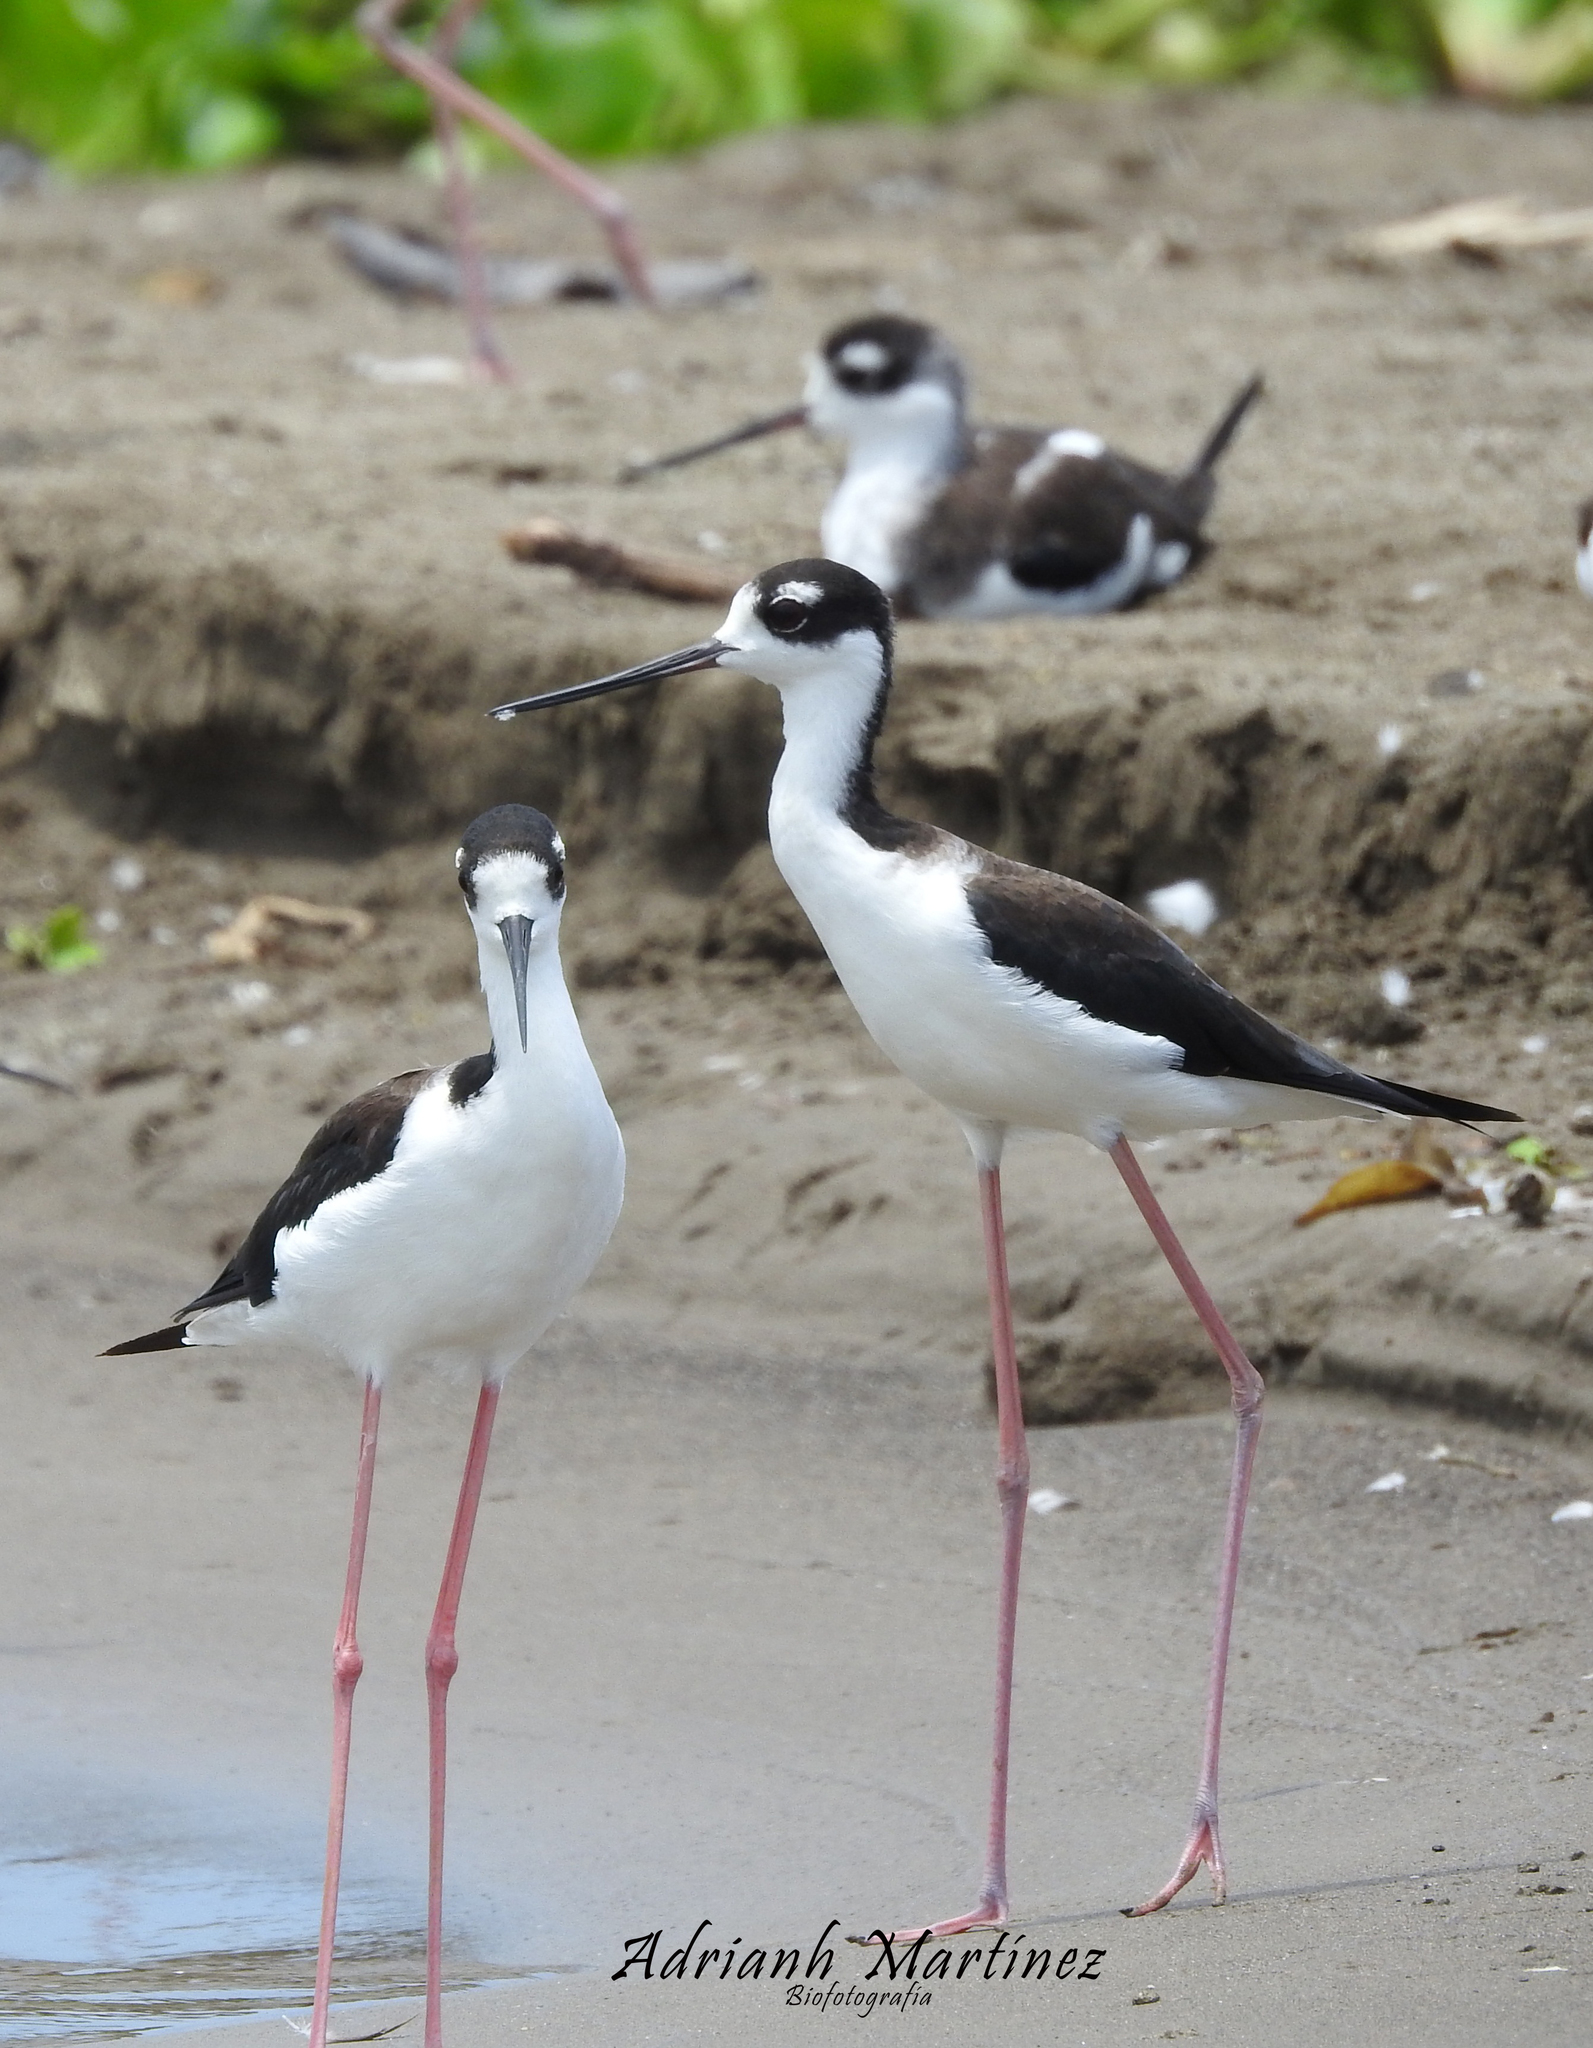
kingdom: Animalia
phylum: Chordata
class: Aves
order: Charadriiformes
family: Recurvirostridae
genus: Himantopus
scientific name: Himantopus mexicanus
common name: Black-necked stilt
